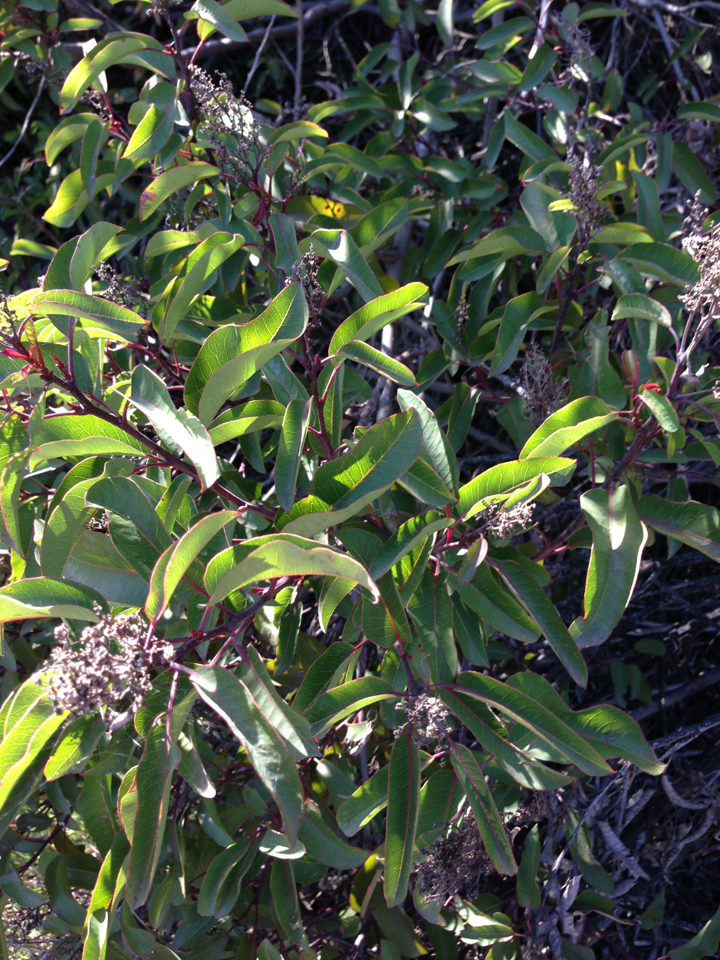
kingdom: Plantae
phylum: Tracheophyta
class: Magnoliopsida
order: Sapindales
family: Anacardiaceae
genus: Malosma
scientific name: Malosma laurina
